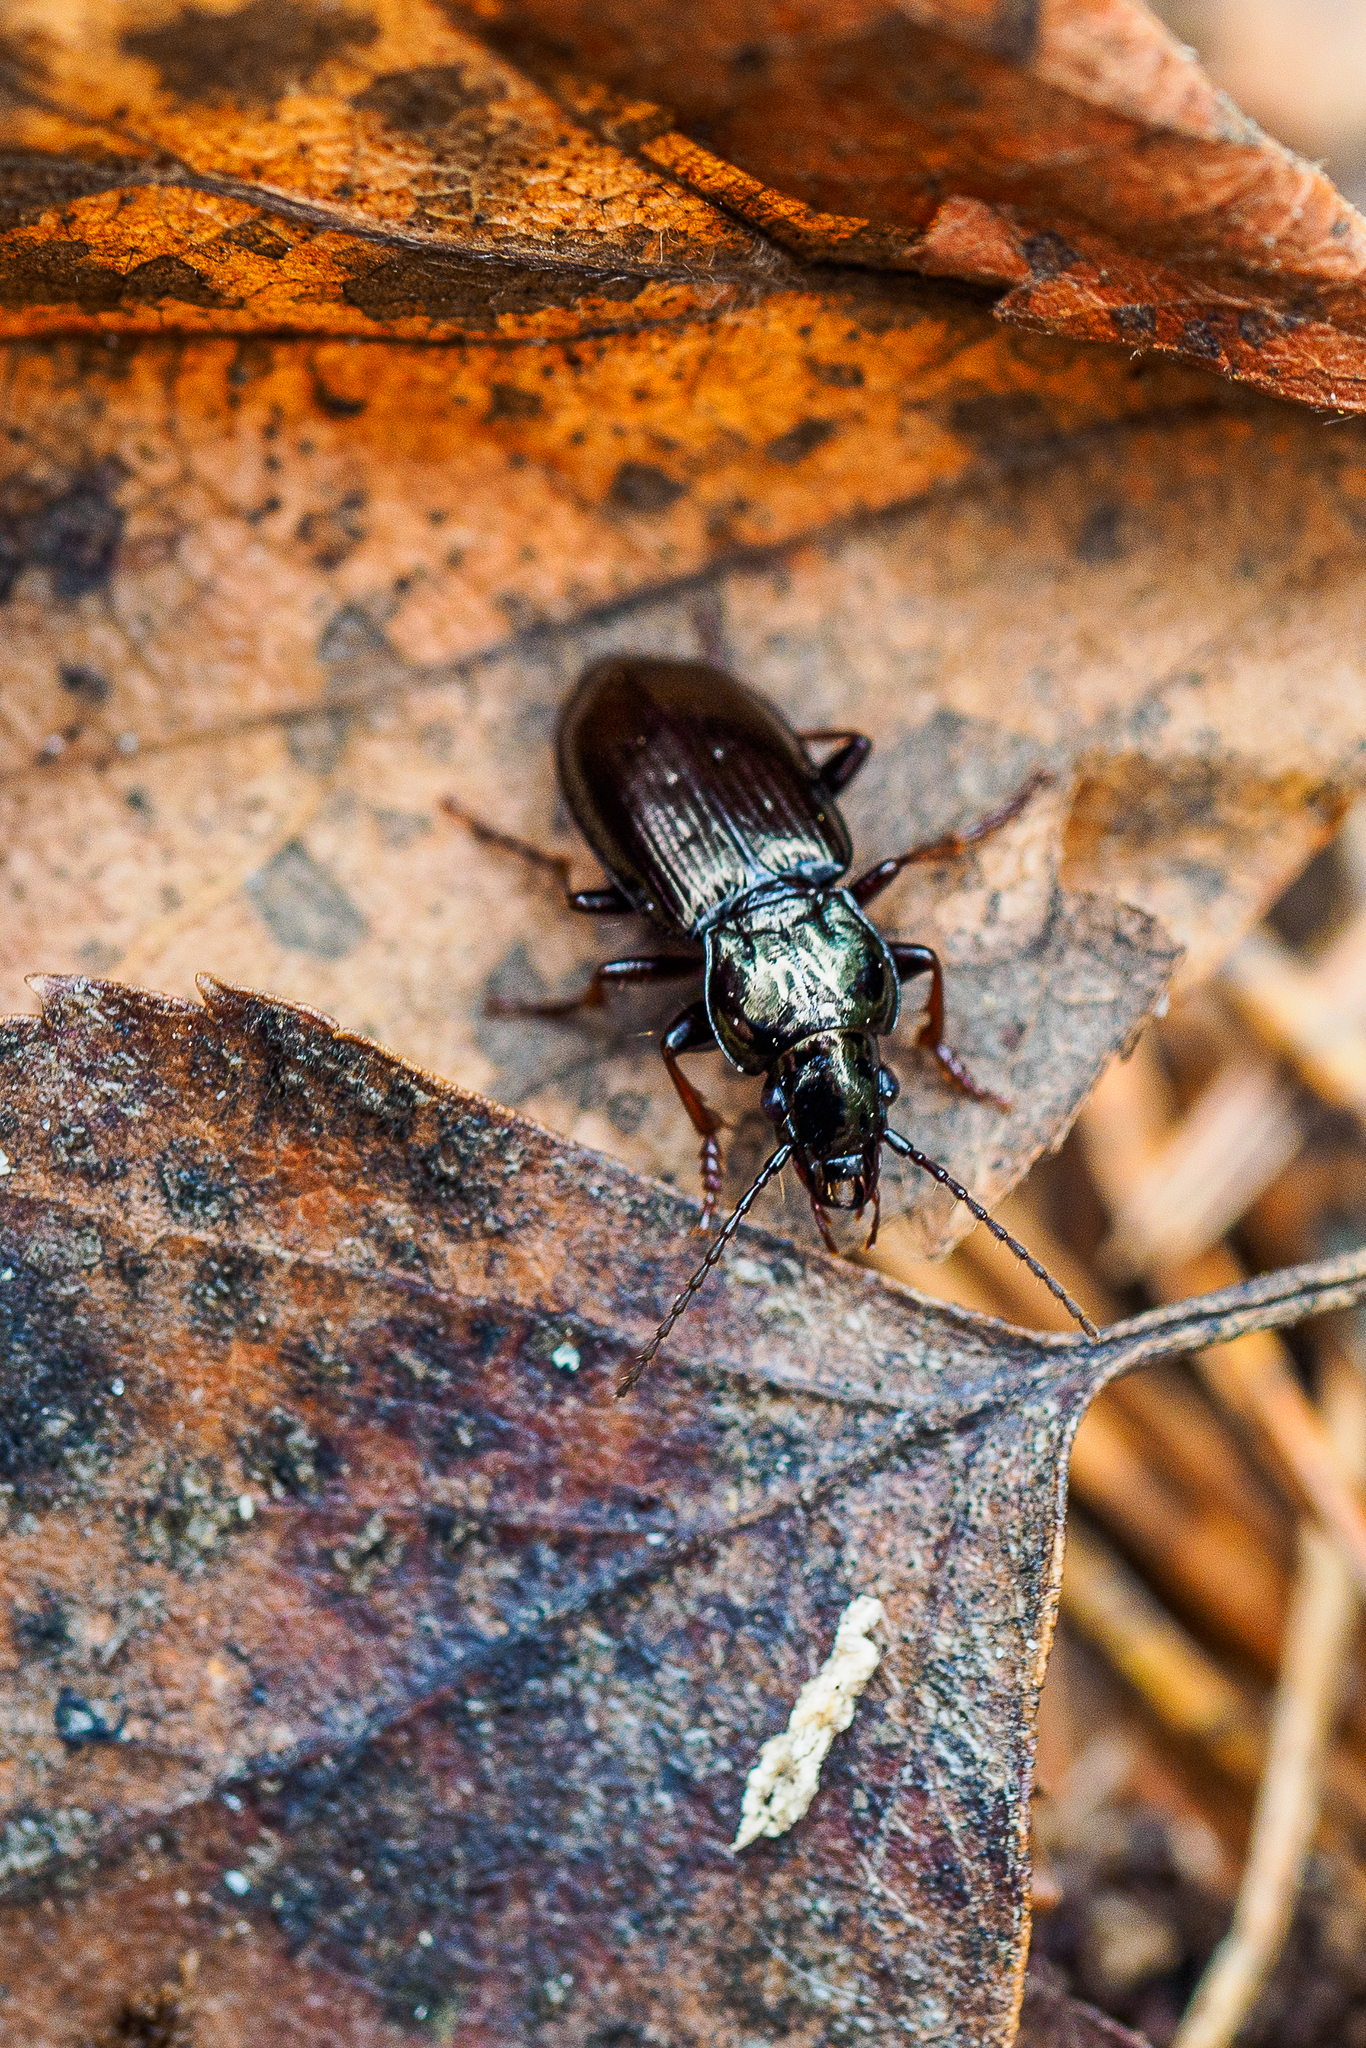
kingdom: Animalia
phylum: Arthropoda
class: Insecta
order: Coleoptera
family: Carabidae
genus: Pterostichus
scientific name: Pterostichus oblongopunctatus
